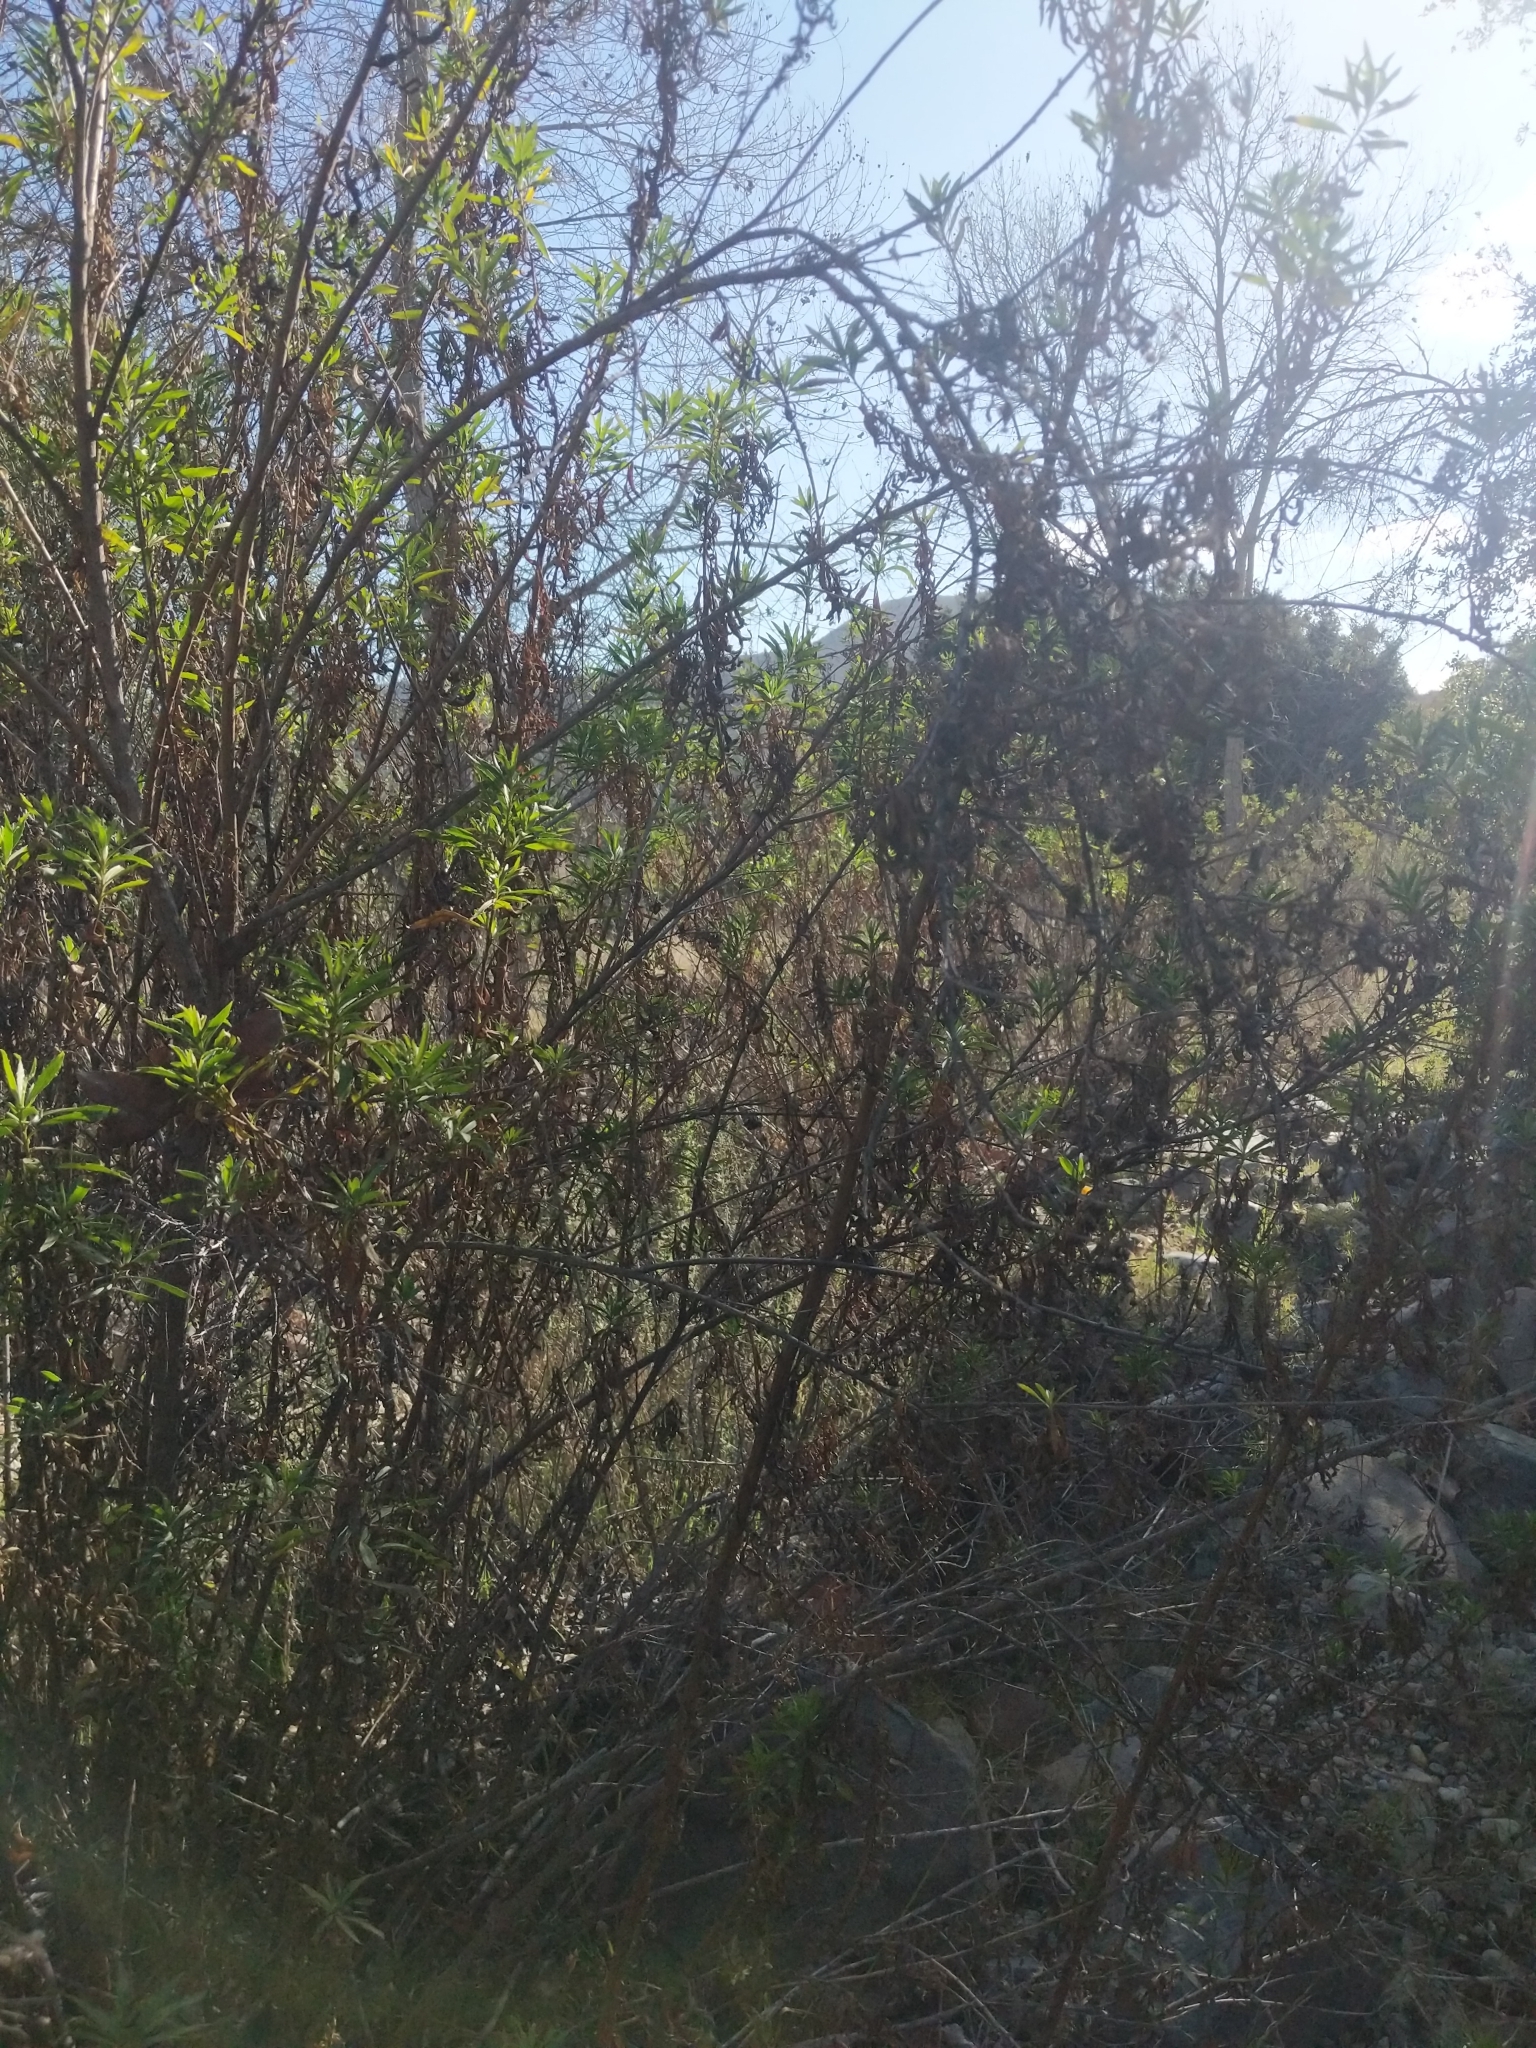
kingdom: Plantae
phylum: Tracheophyta
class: Magnoliopsida
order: Asterales
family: Asteraceae
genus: Baccharis
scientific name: Baccharis salicifolia
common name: Sticky baccharis
